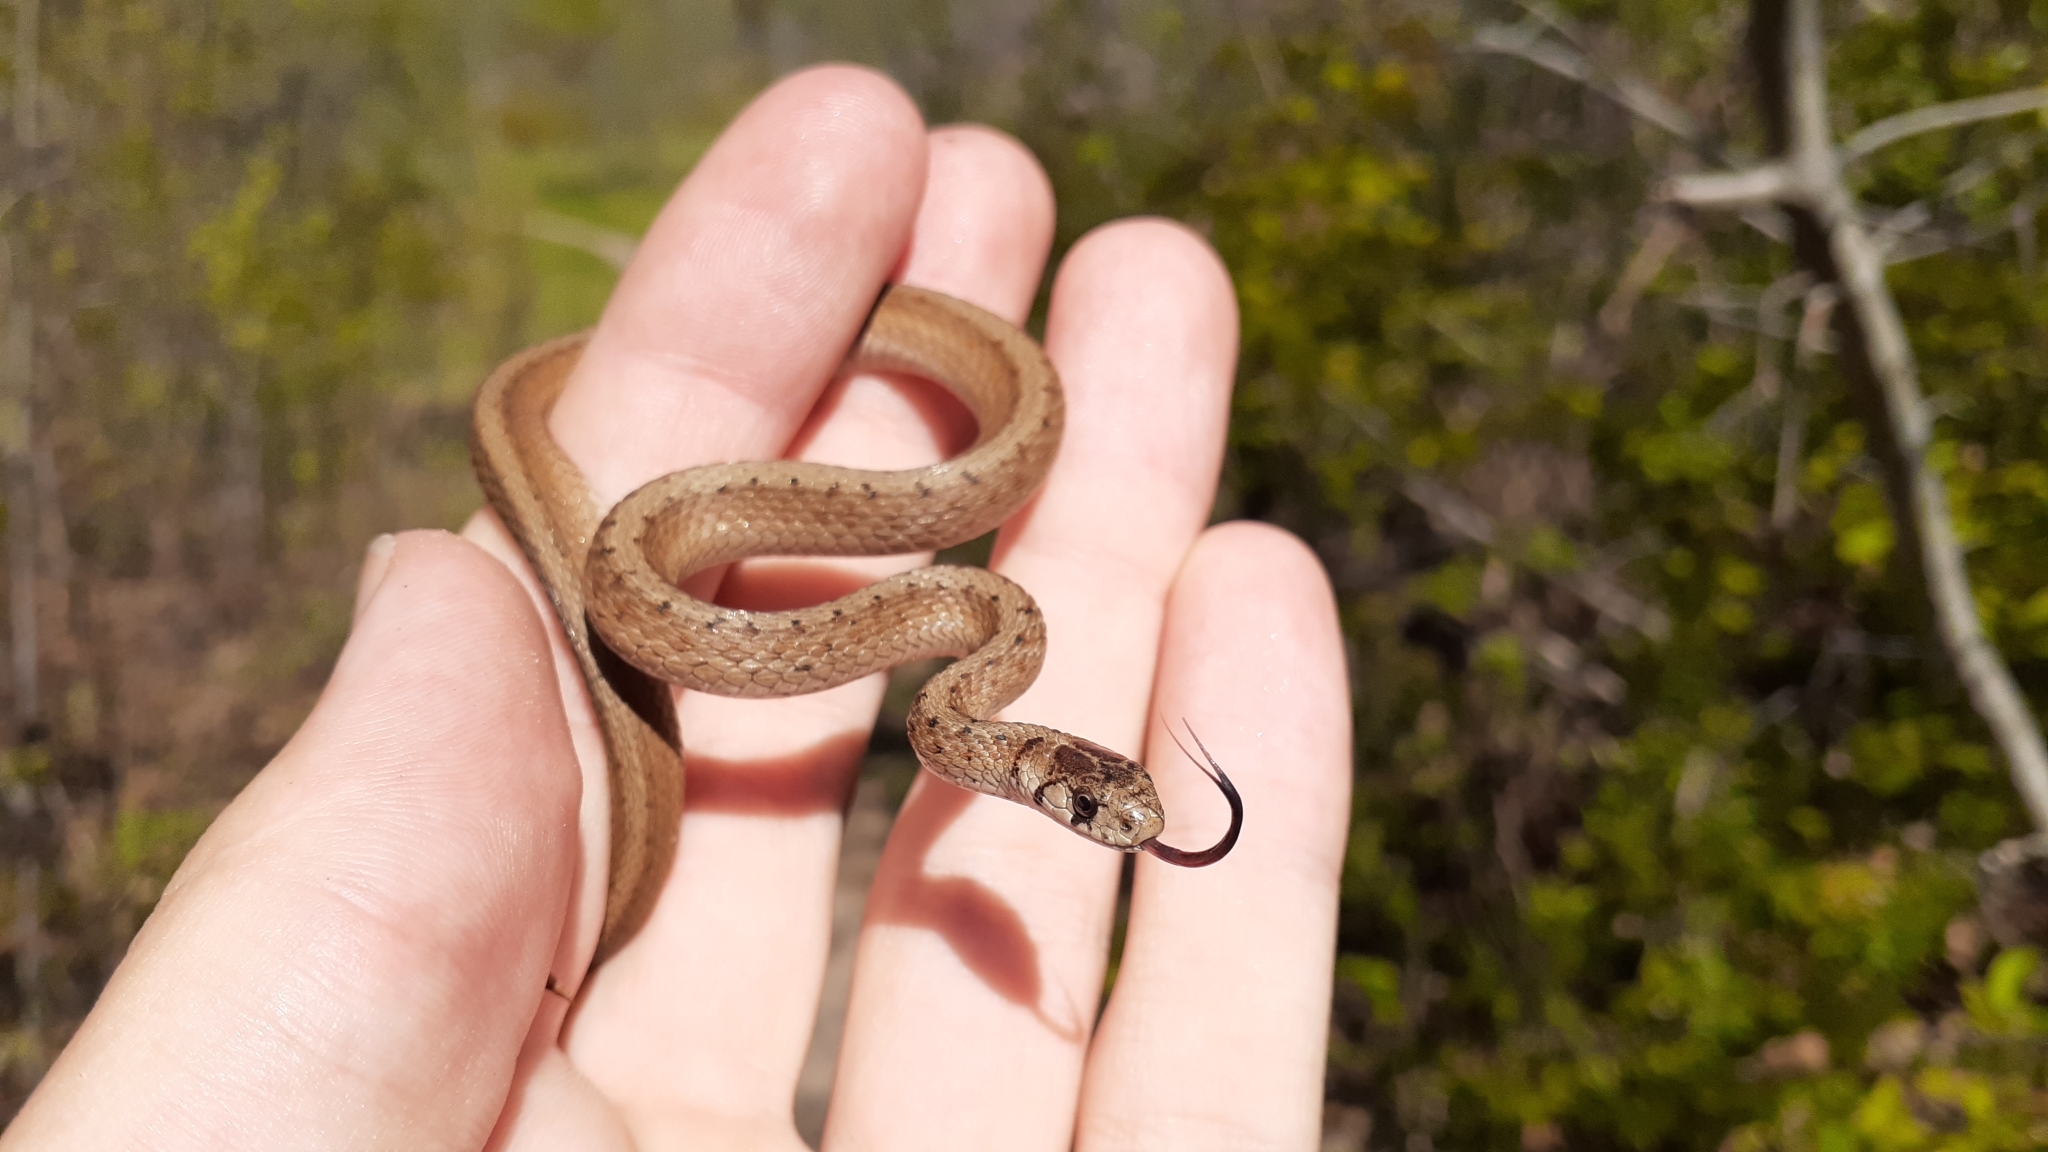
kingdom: Animalia
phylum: Chordata
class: Squamata
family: Colubridae
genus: Storeria
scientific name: Storeria dekayi
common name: (dekay’s) brown snake
